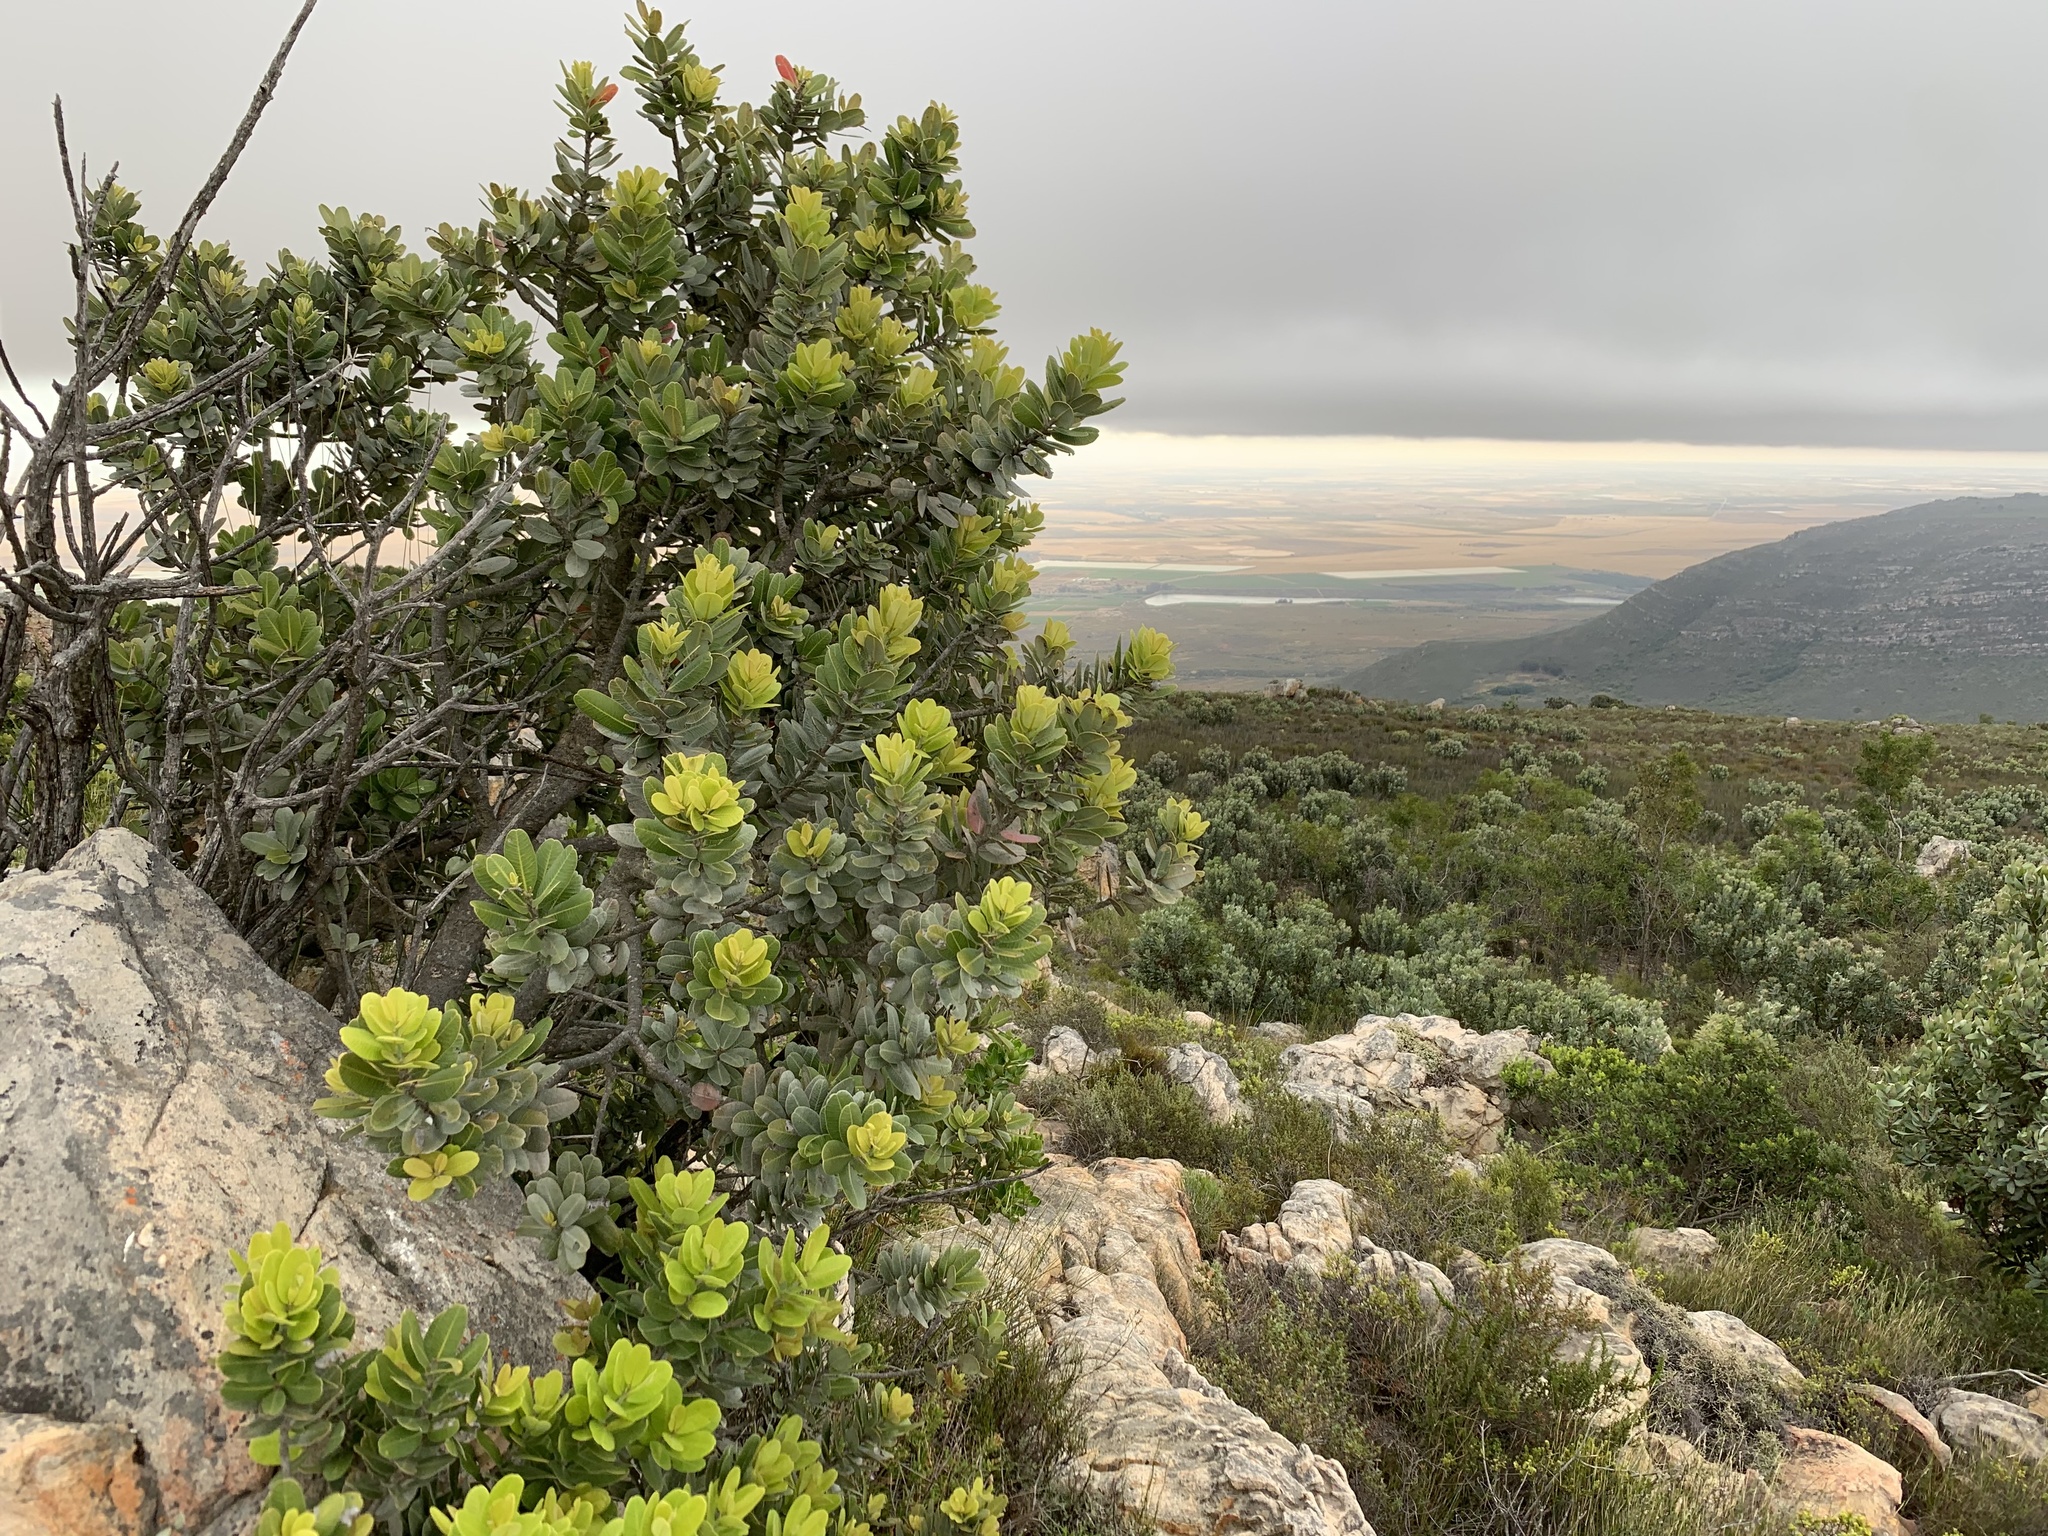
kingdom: Plantae
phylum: Tracheophyta
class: Magnoliopsida
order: Sapindales
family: Anacardiaceae
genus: Heeria
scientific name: Heeria argentea
